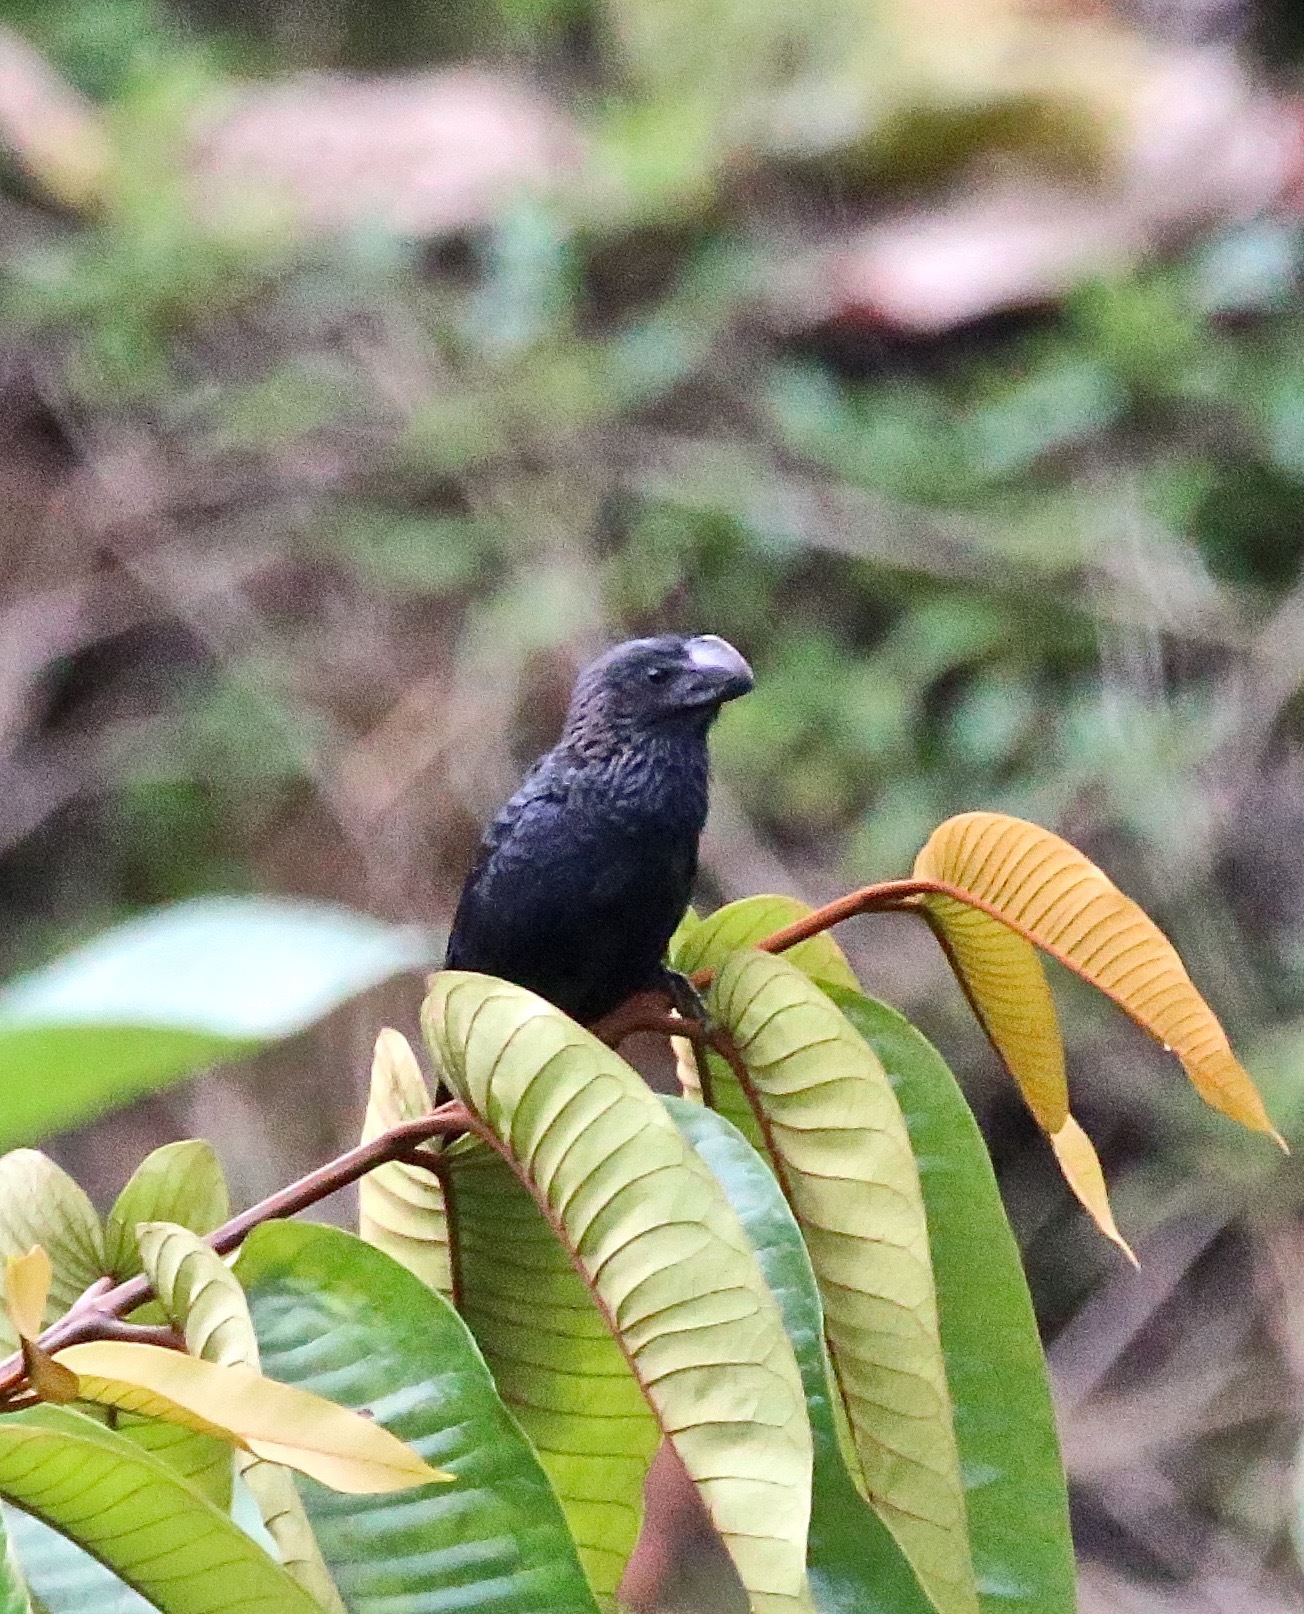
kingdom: Animalia
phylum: Chordata
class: Aves
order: Cuculiformes
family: Cuculidae
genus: Crotophaga
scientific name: Crotophaga ani
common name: Smooth-billed ani
